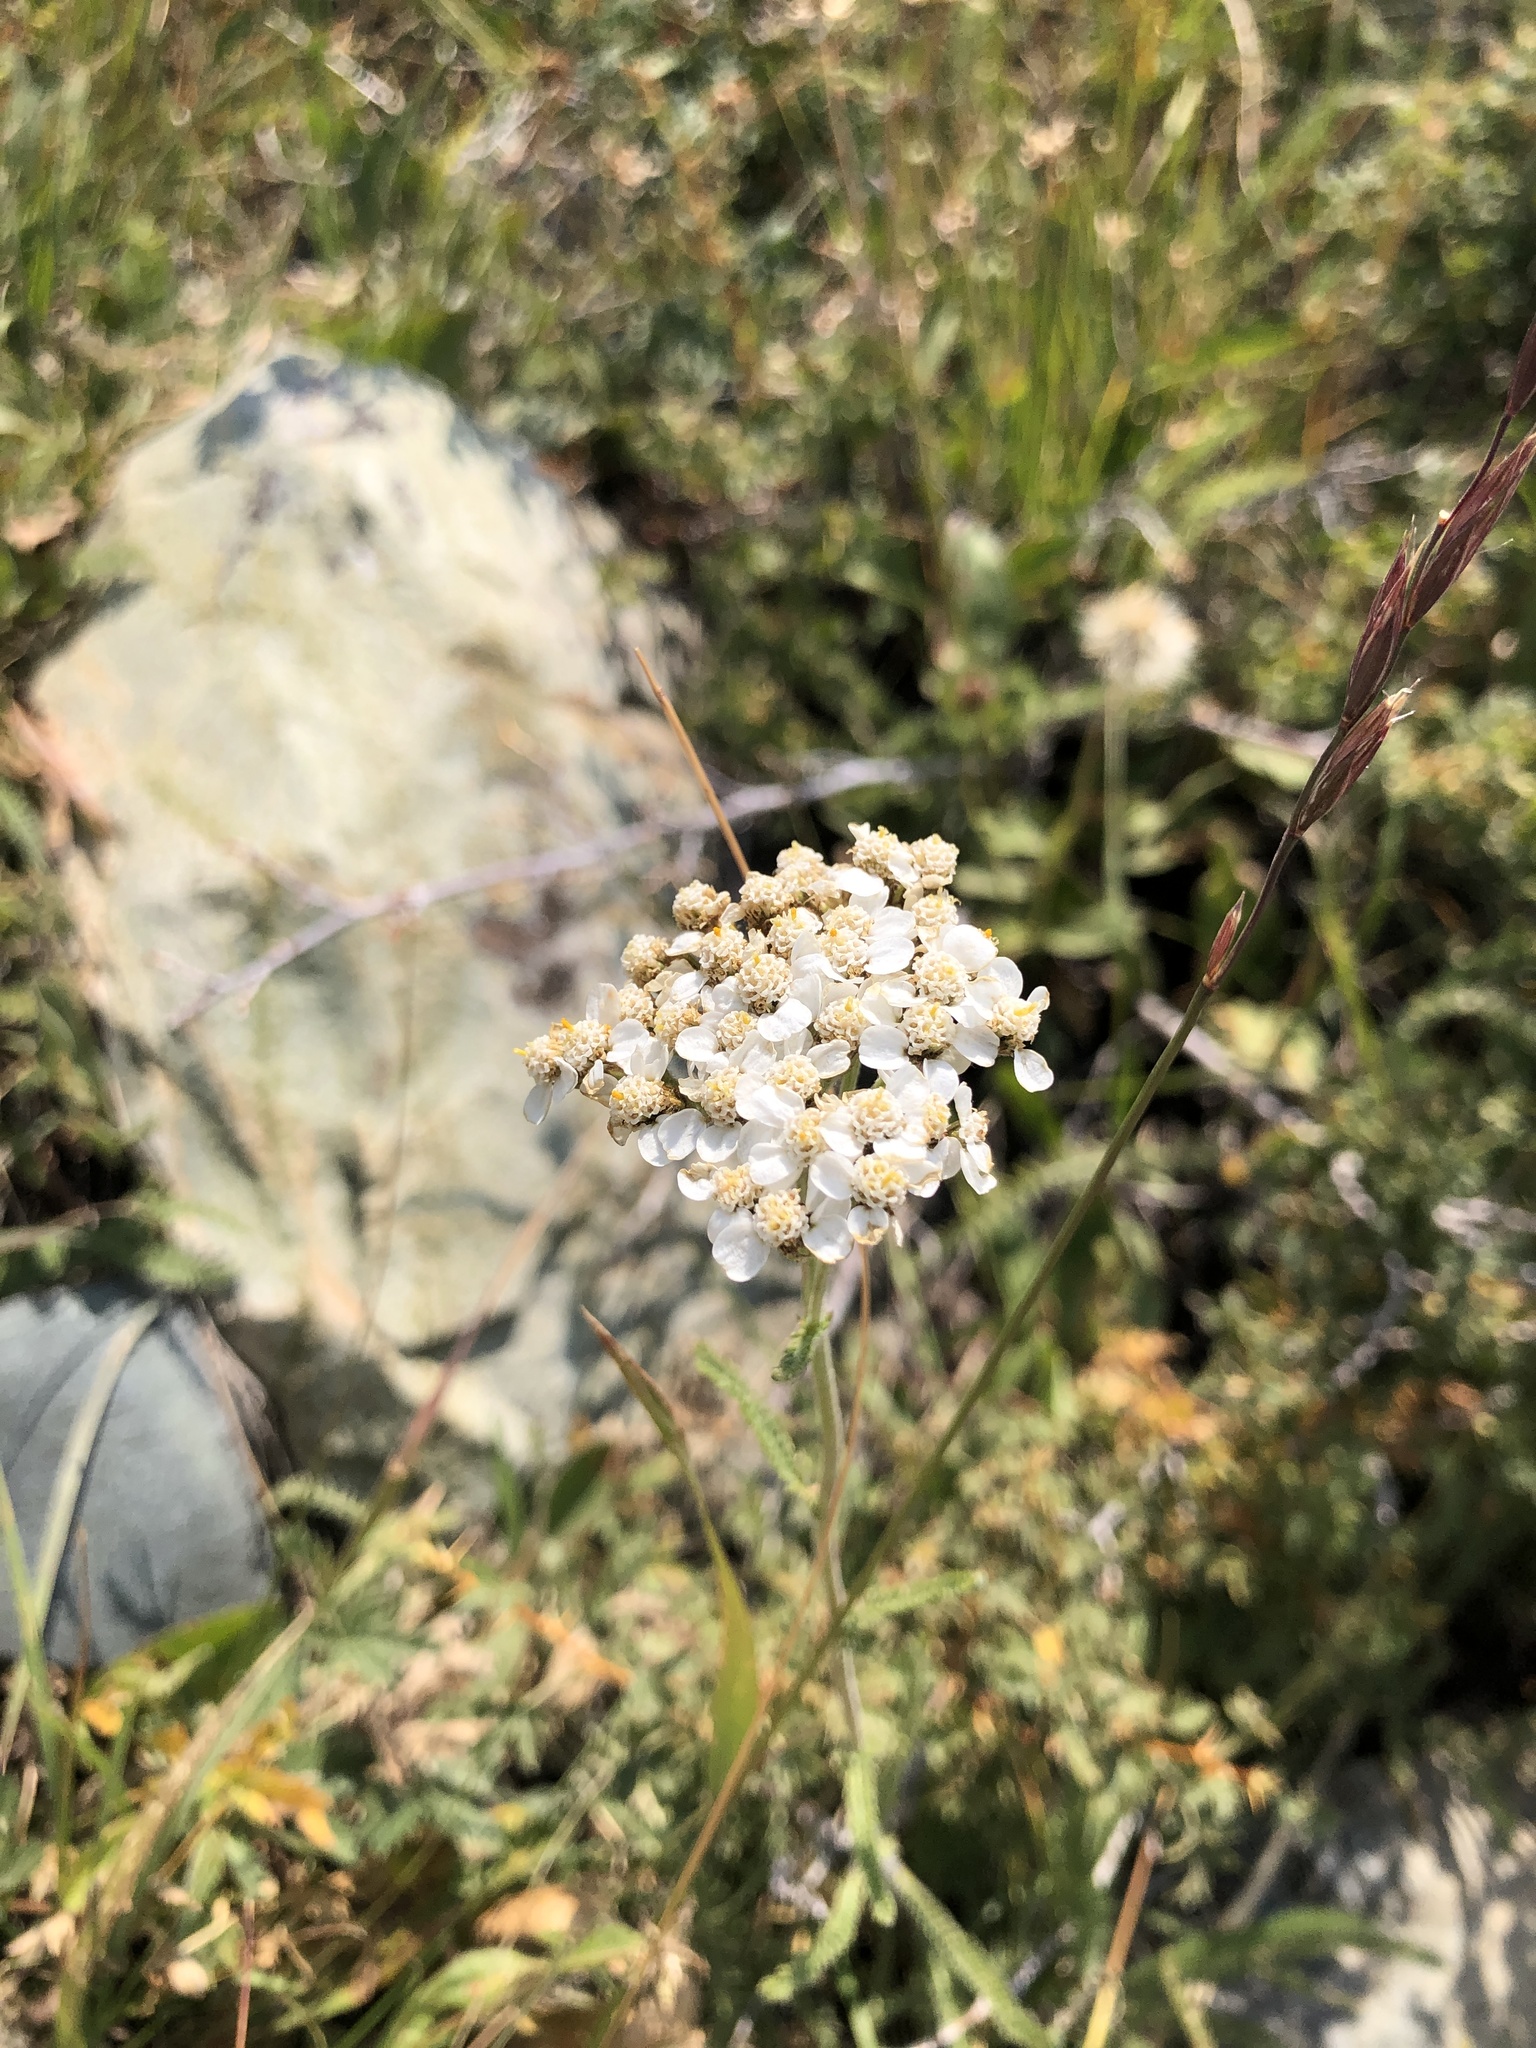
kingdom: Plantae
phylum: Tracheophyta
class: Magnoliopsida
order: Asterales
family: Asteraceae
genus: Achillea
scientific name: Achillea millefolium
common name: Yarrow
